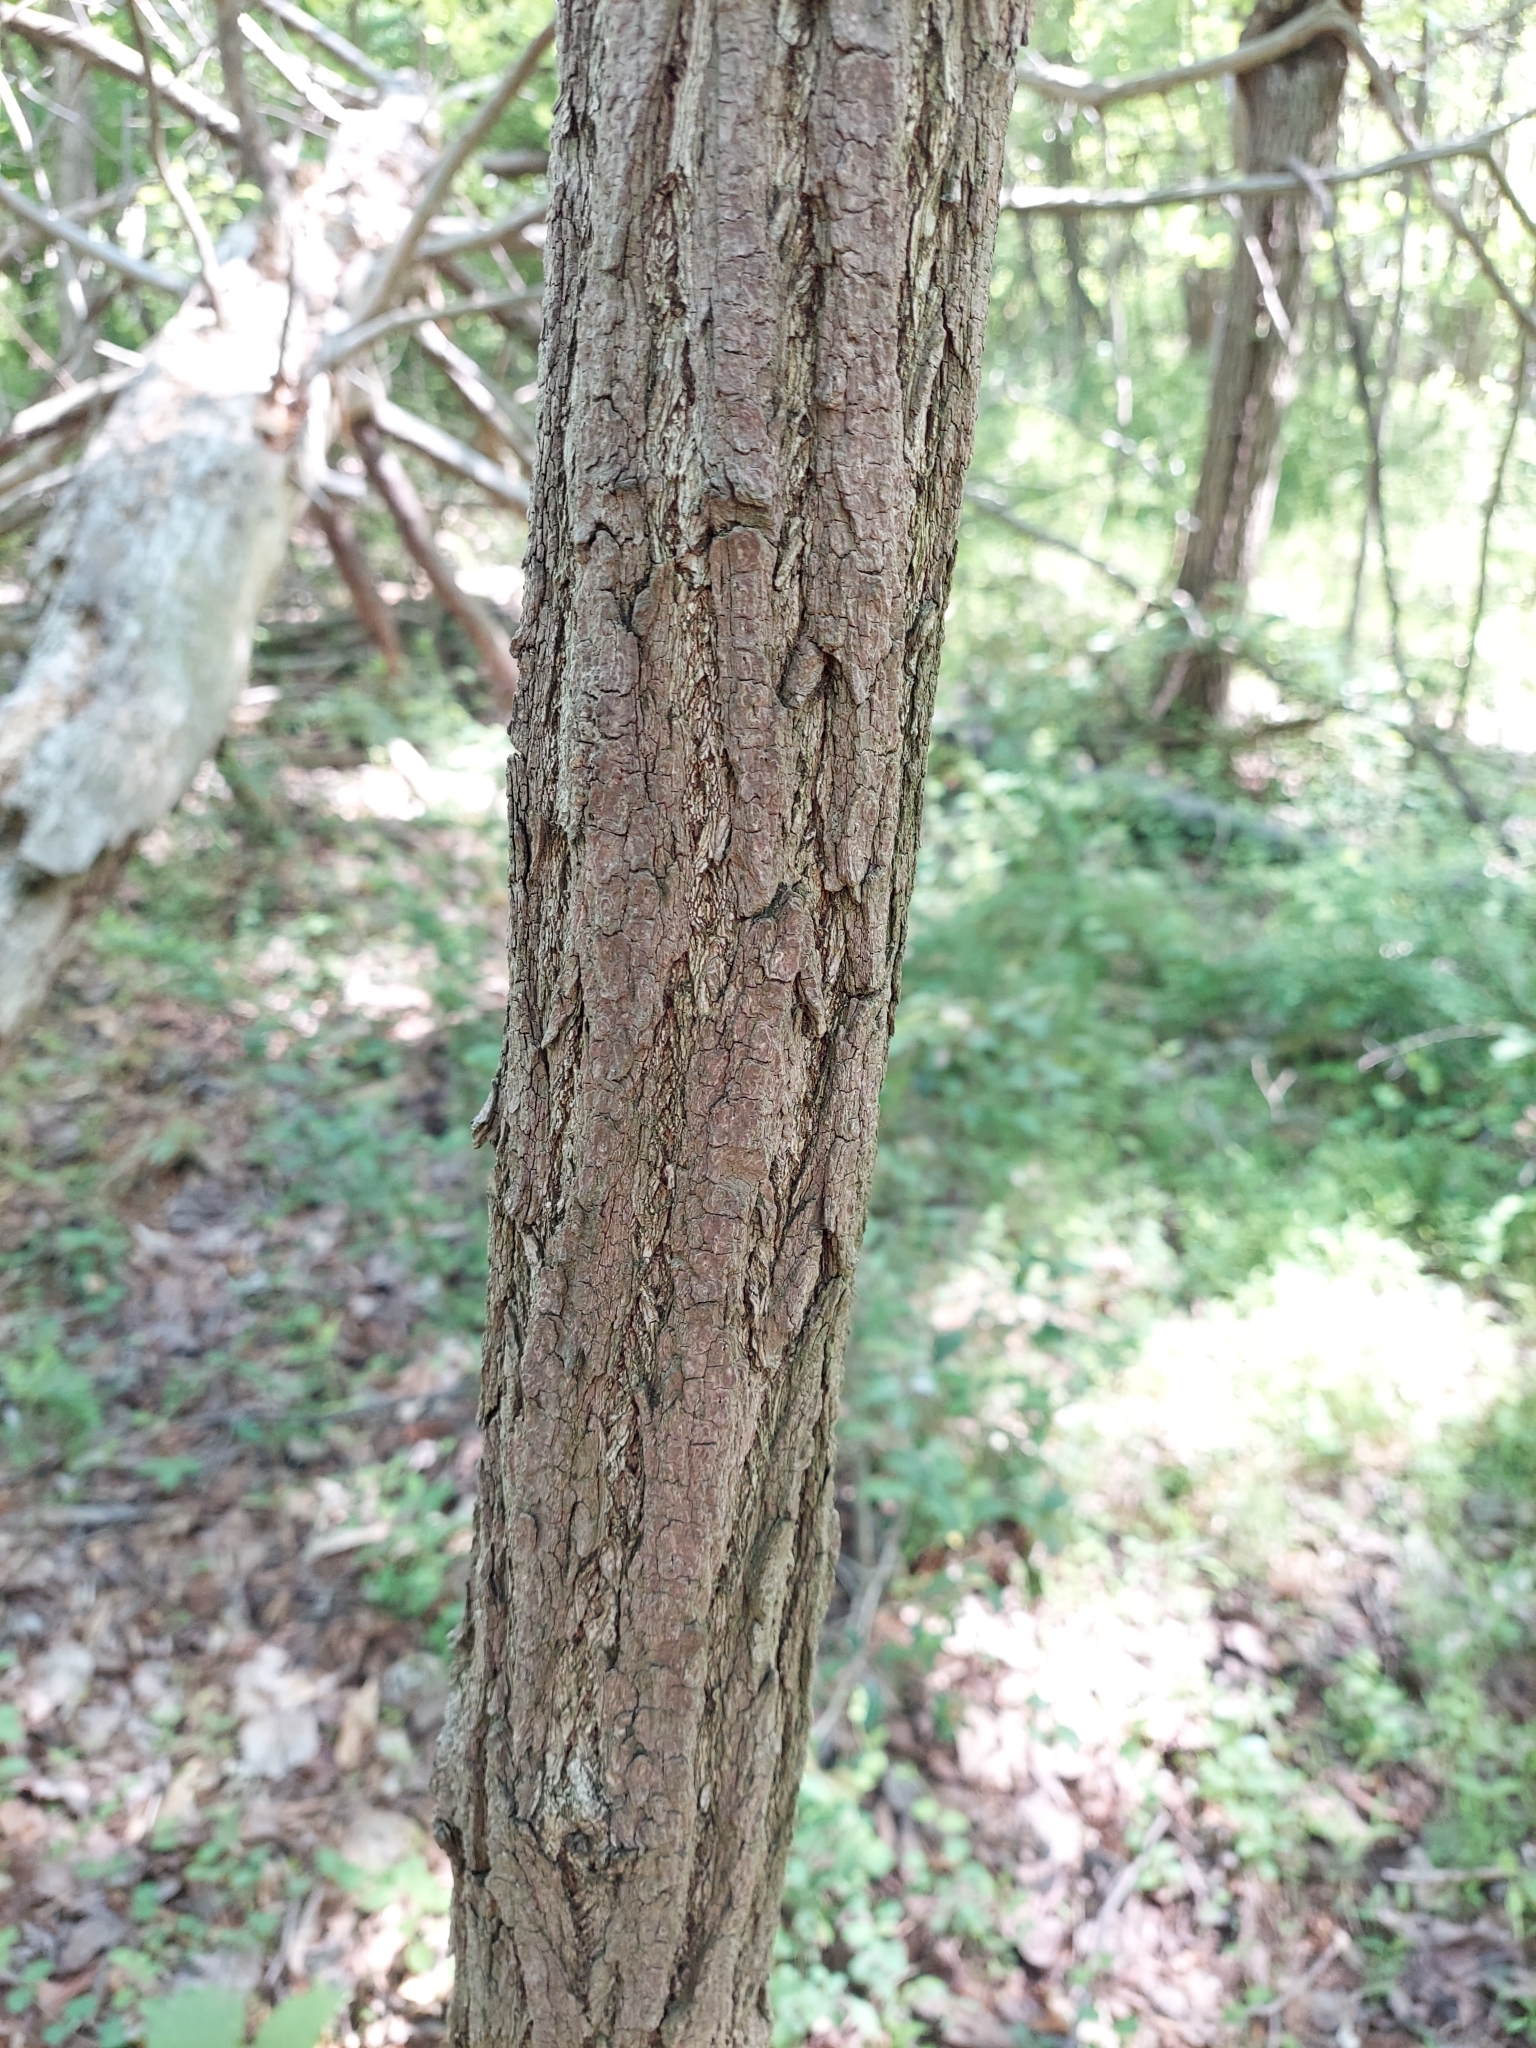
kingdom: Plantae
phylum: Tracheophyta
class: Magnoliopsida
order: Laurales
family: Lauraceae
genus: Sassafras
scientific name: Sassafras albidum
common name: Sassafras
